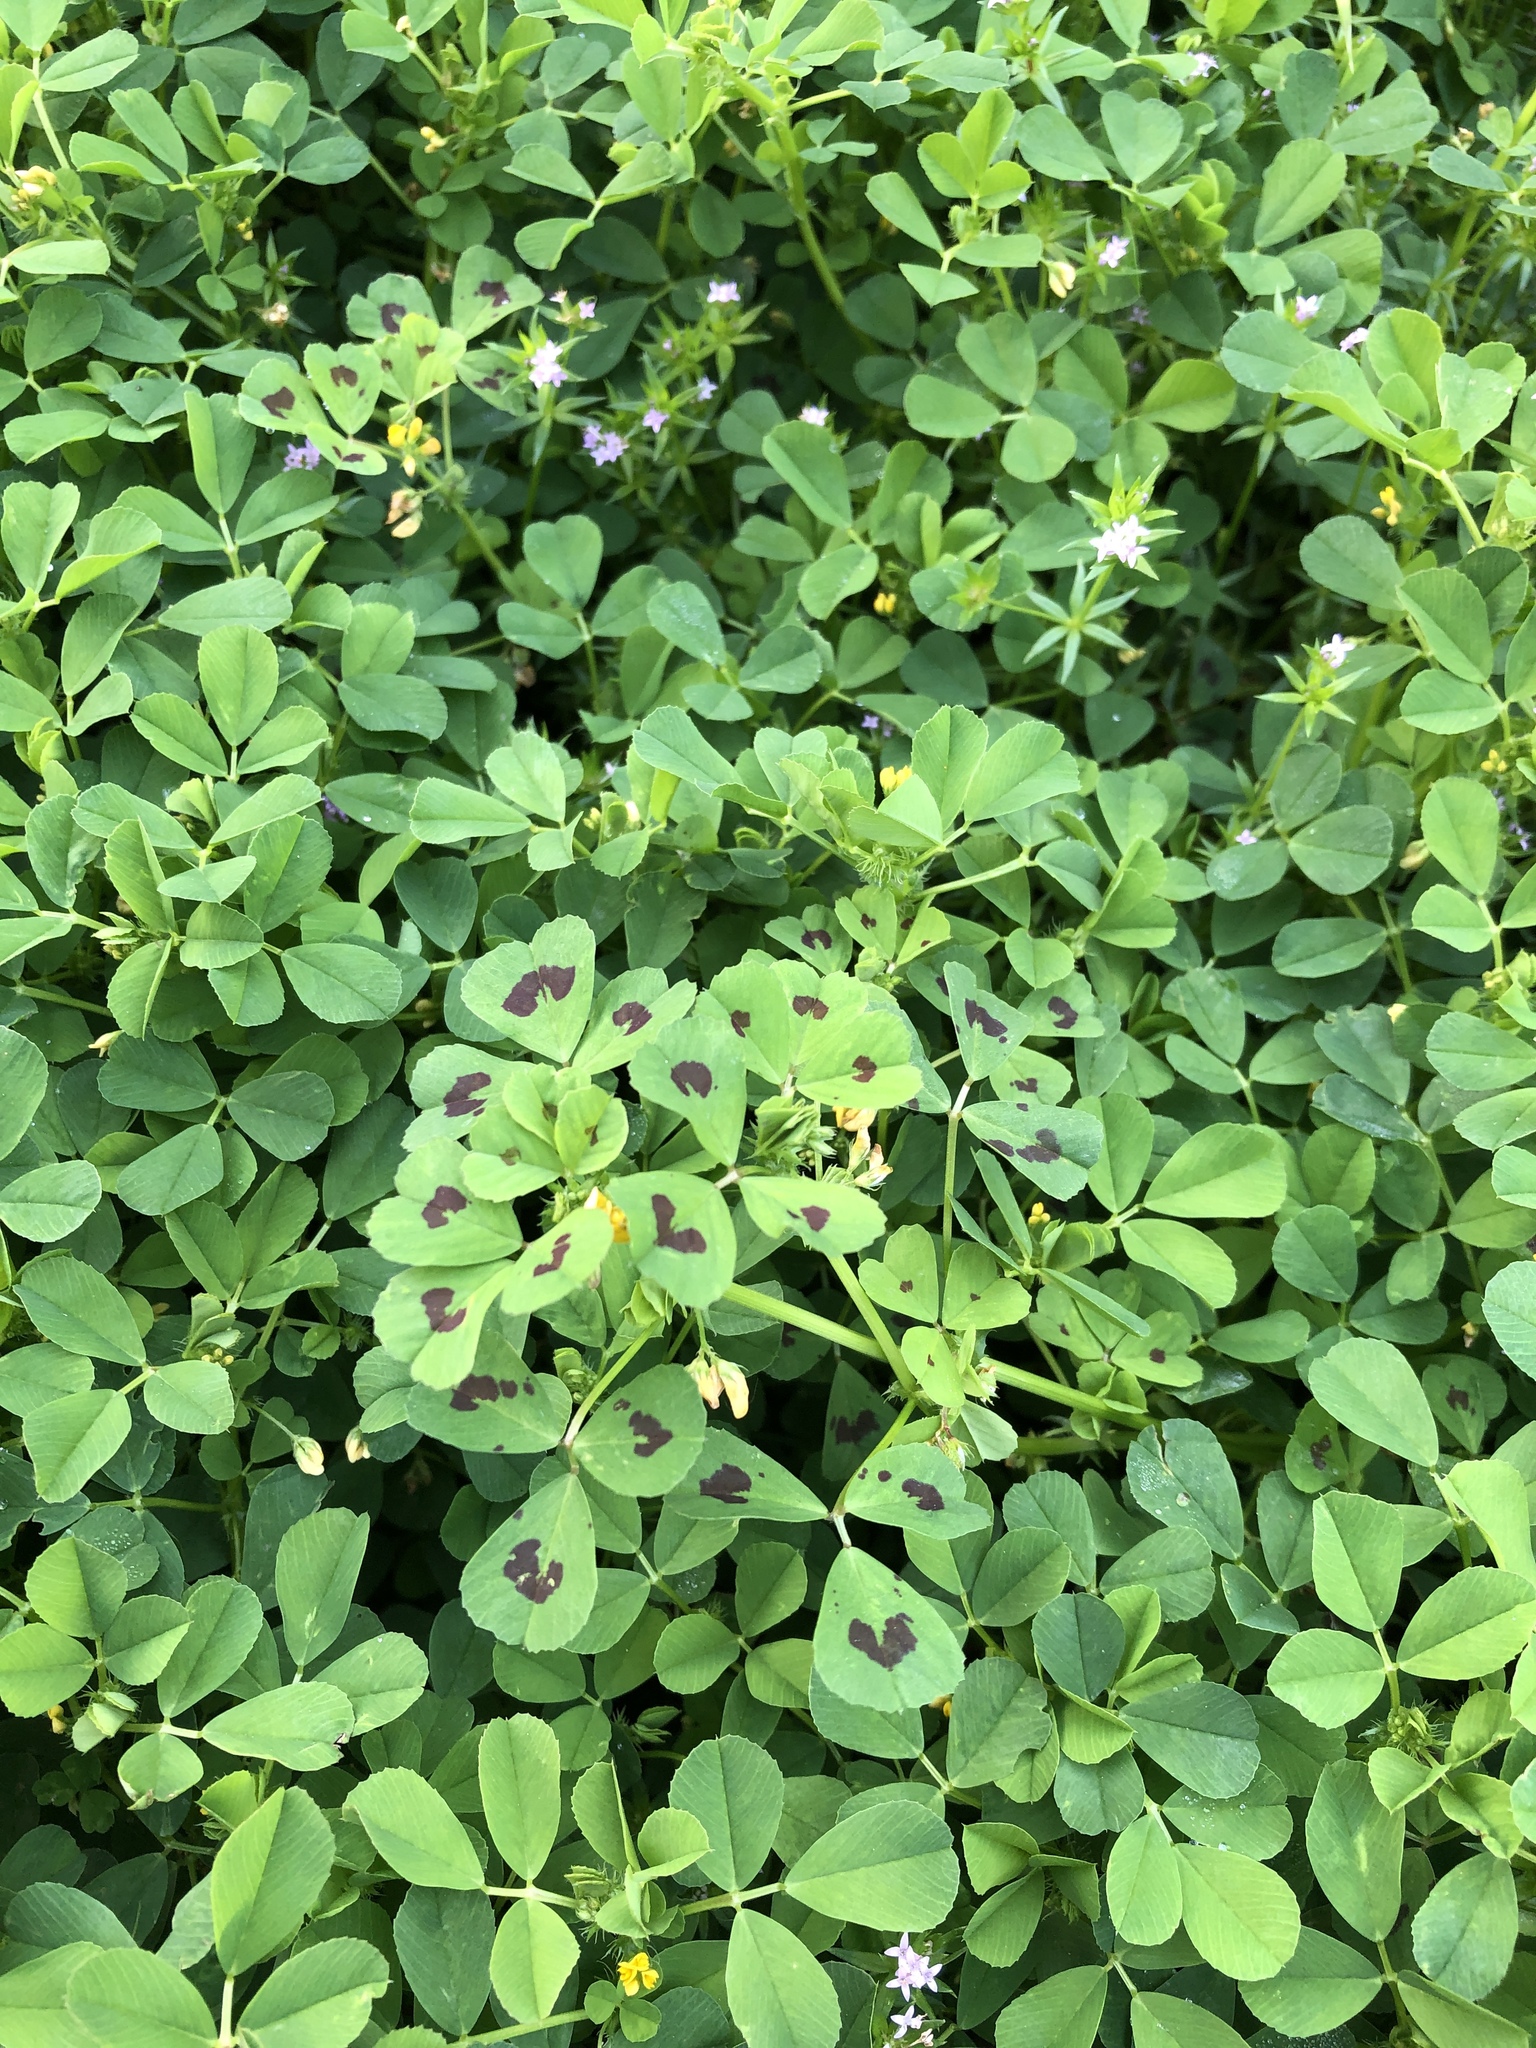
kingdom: Plantae
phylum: Tracheophyta
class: Magnoliopsida
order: Fabales
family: Fabaceae
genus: Medicago
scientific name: Medicago arabica
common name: Spotted medick
